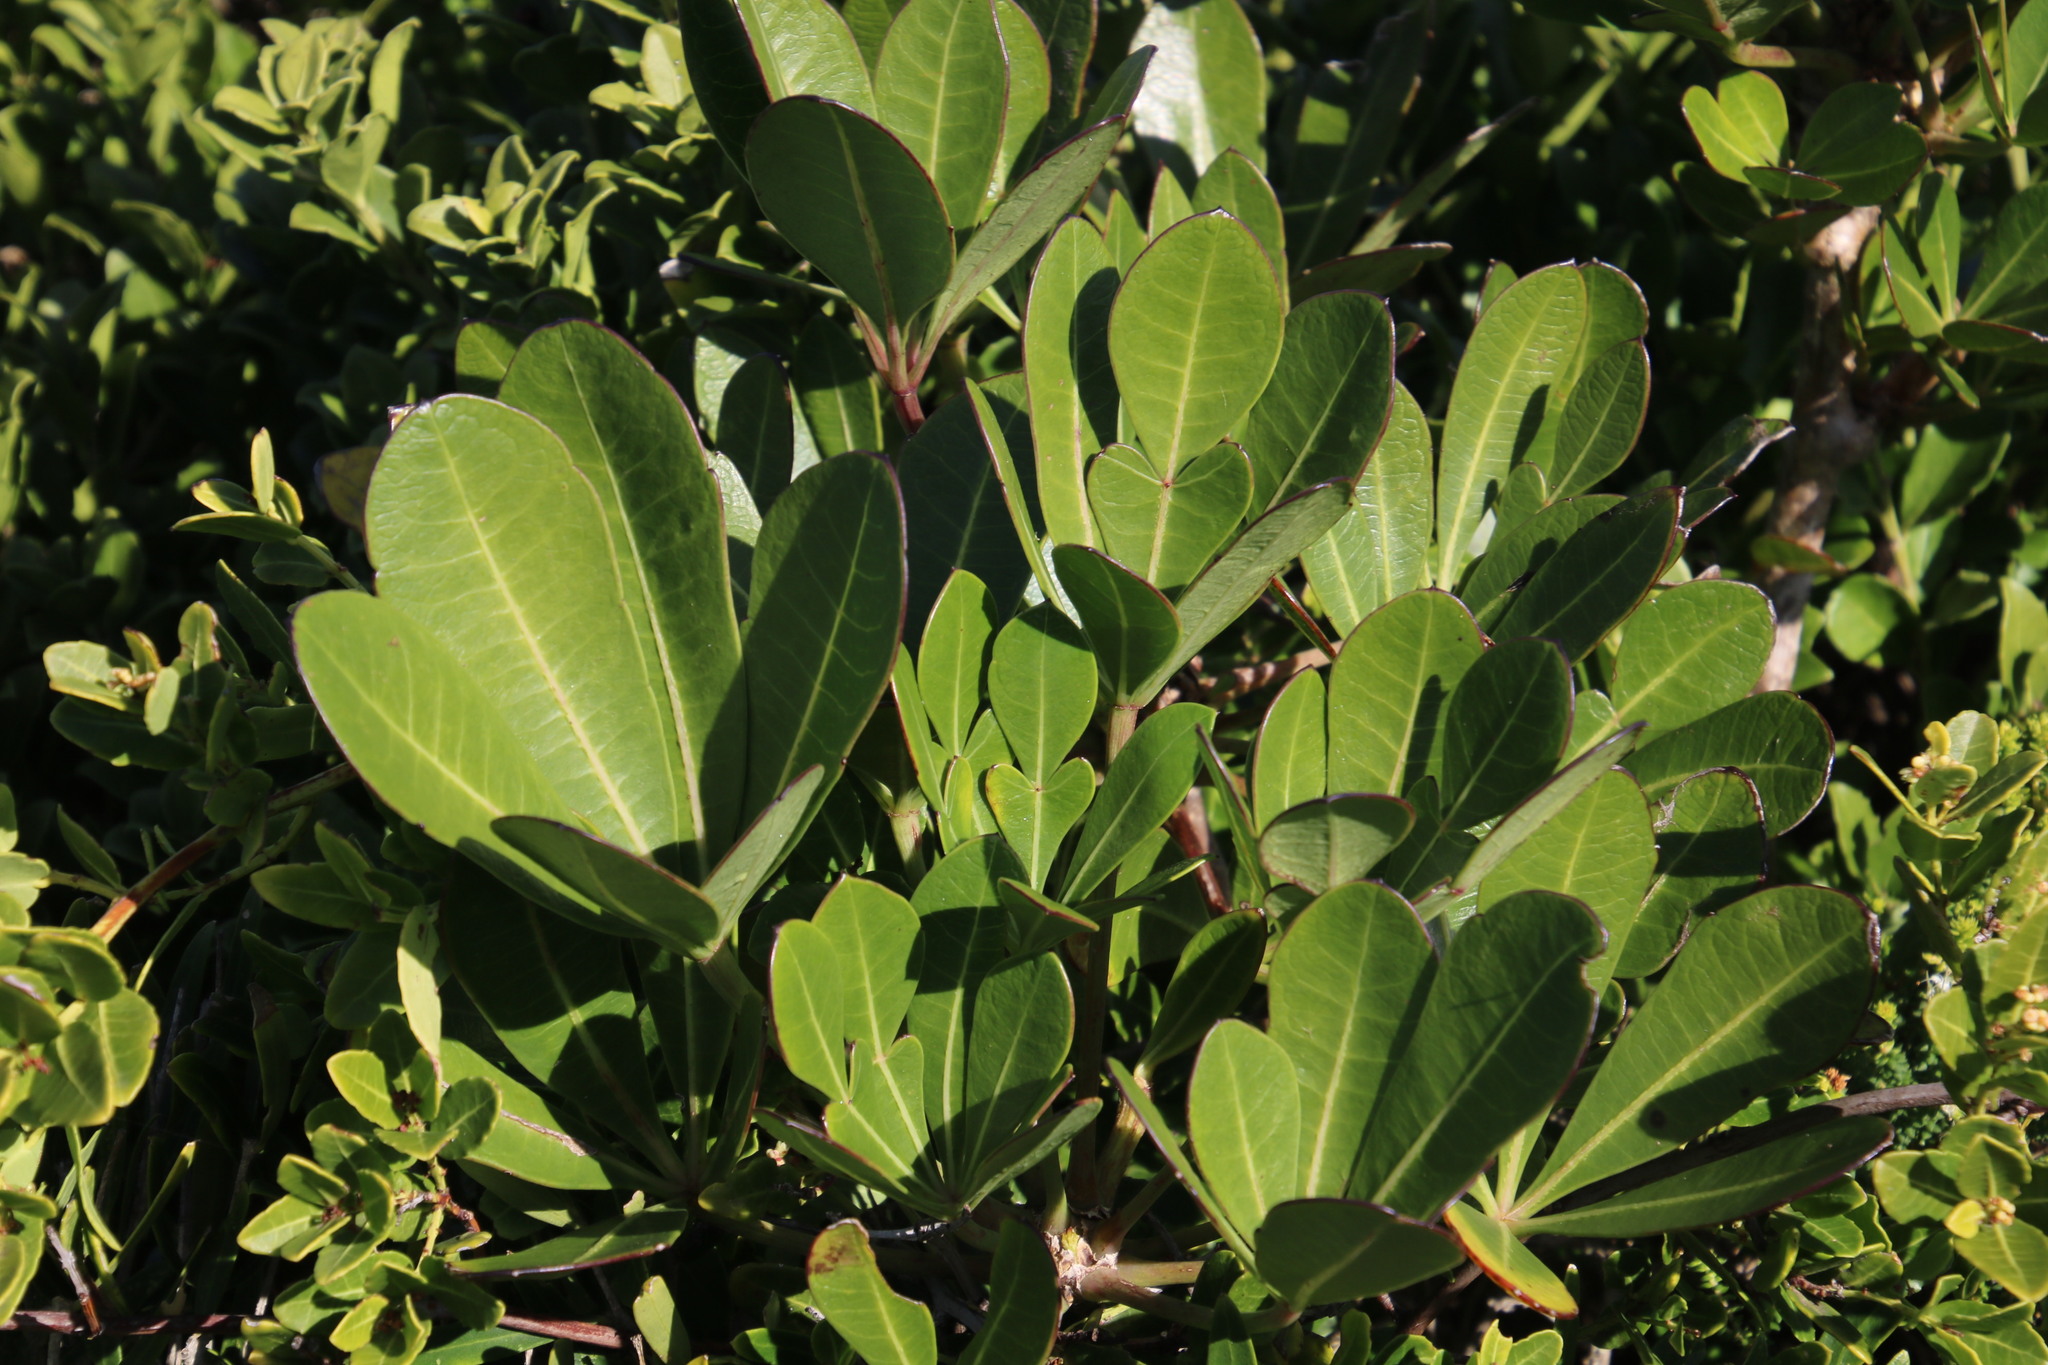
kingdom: Plantae
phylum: Tracheophyta
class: Magnoliopsida
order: Apiales
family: Araliaceae
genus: Cussonia
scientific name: Cussonia thyrsiflora
